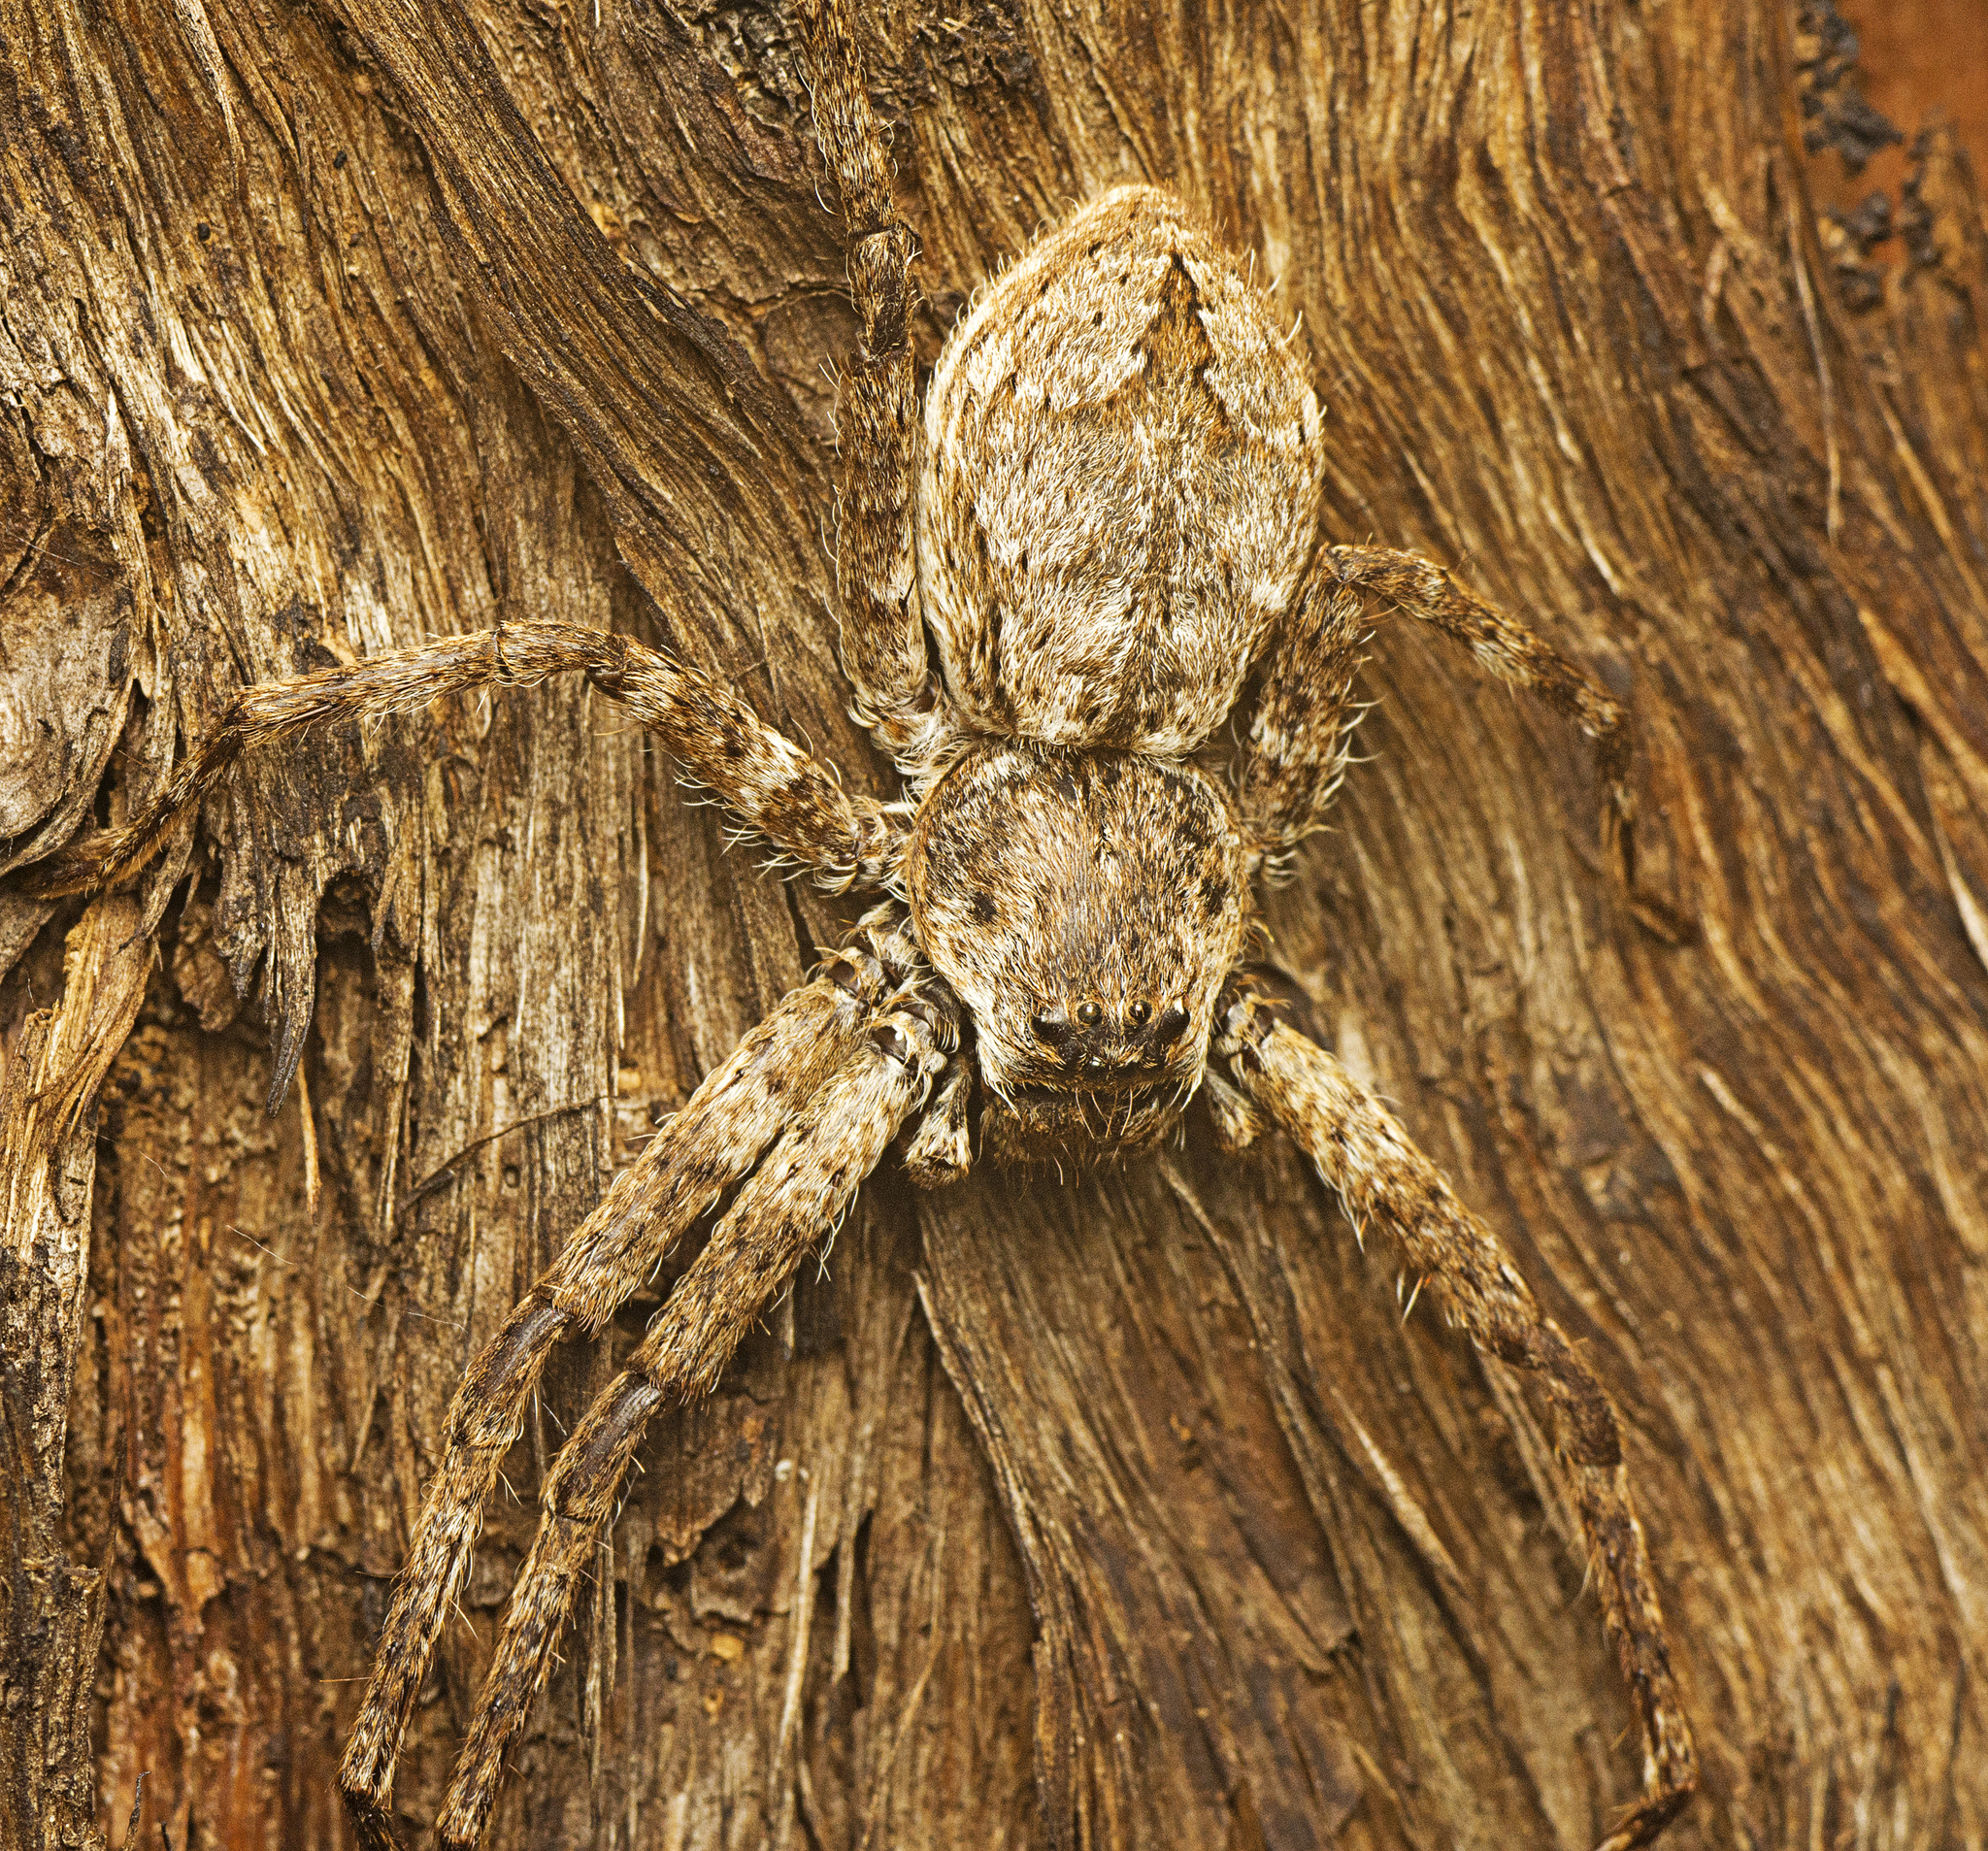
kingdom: Animalia
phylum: Arthropoda
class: Arachnida
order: Araneae
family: Sparassidae
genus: Pediana
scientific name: Pediana regina
